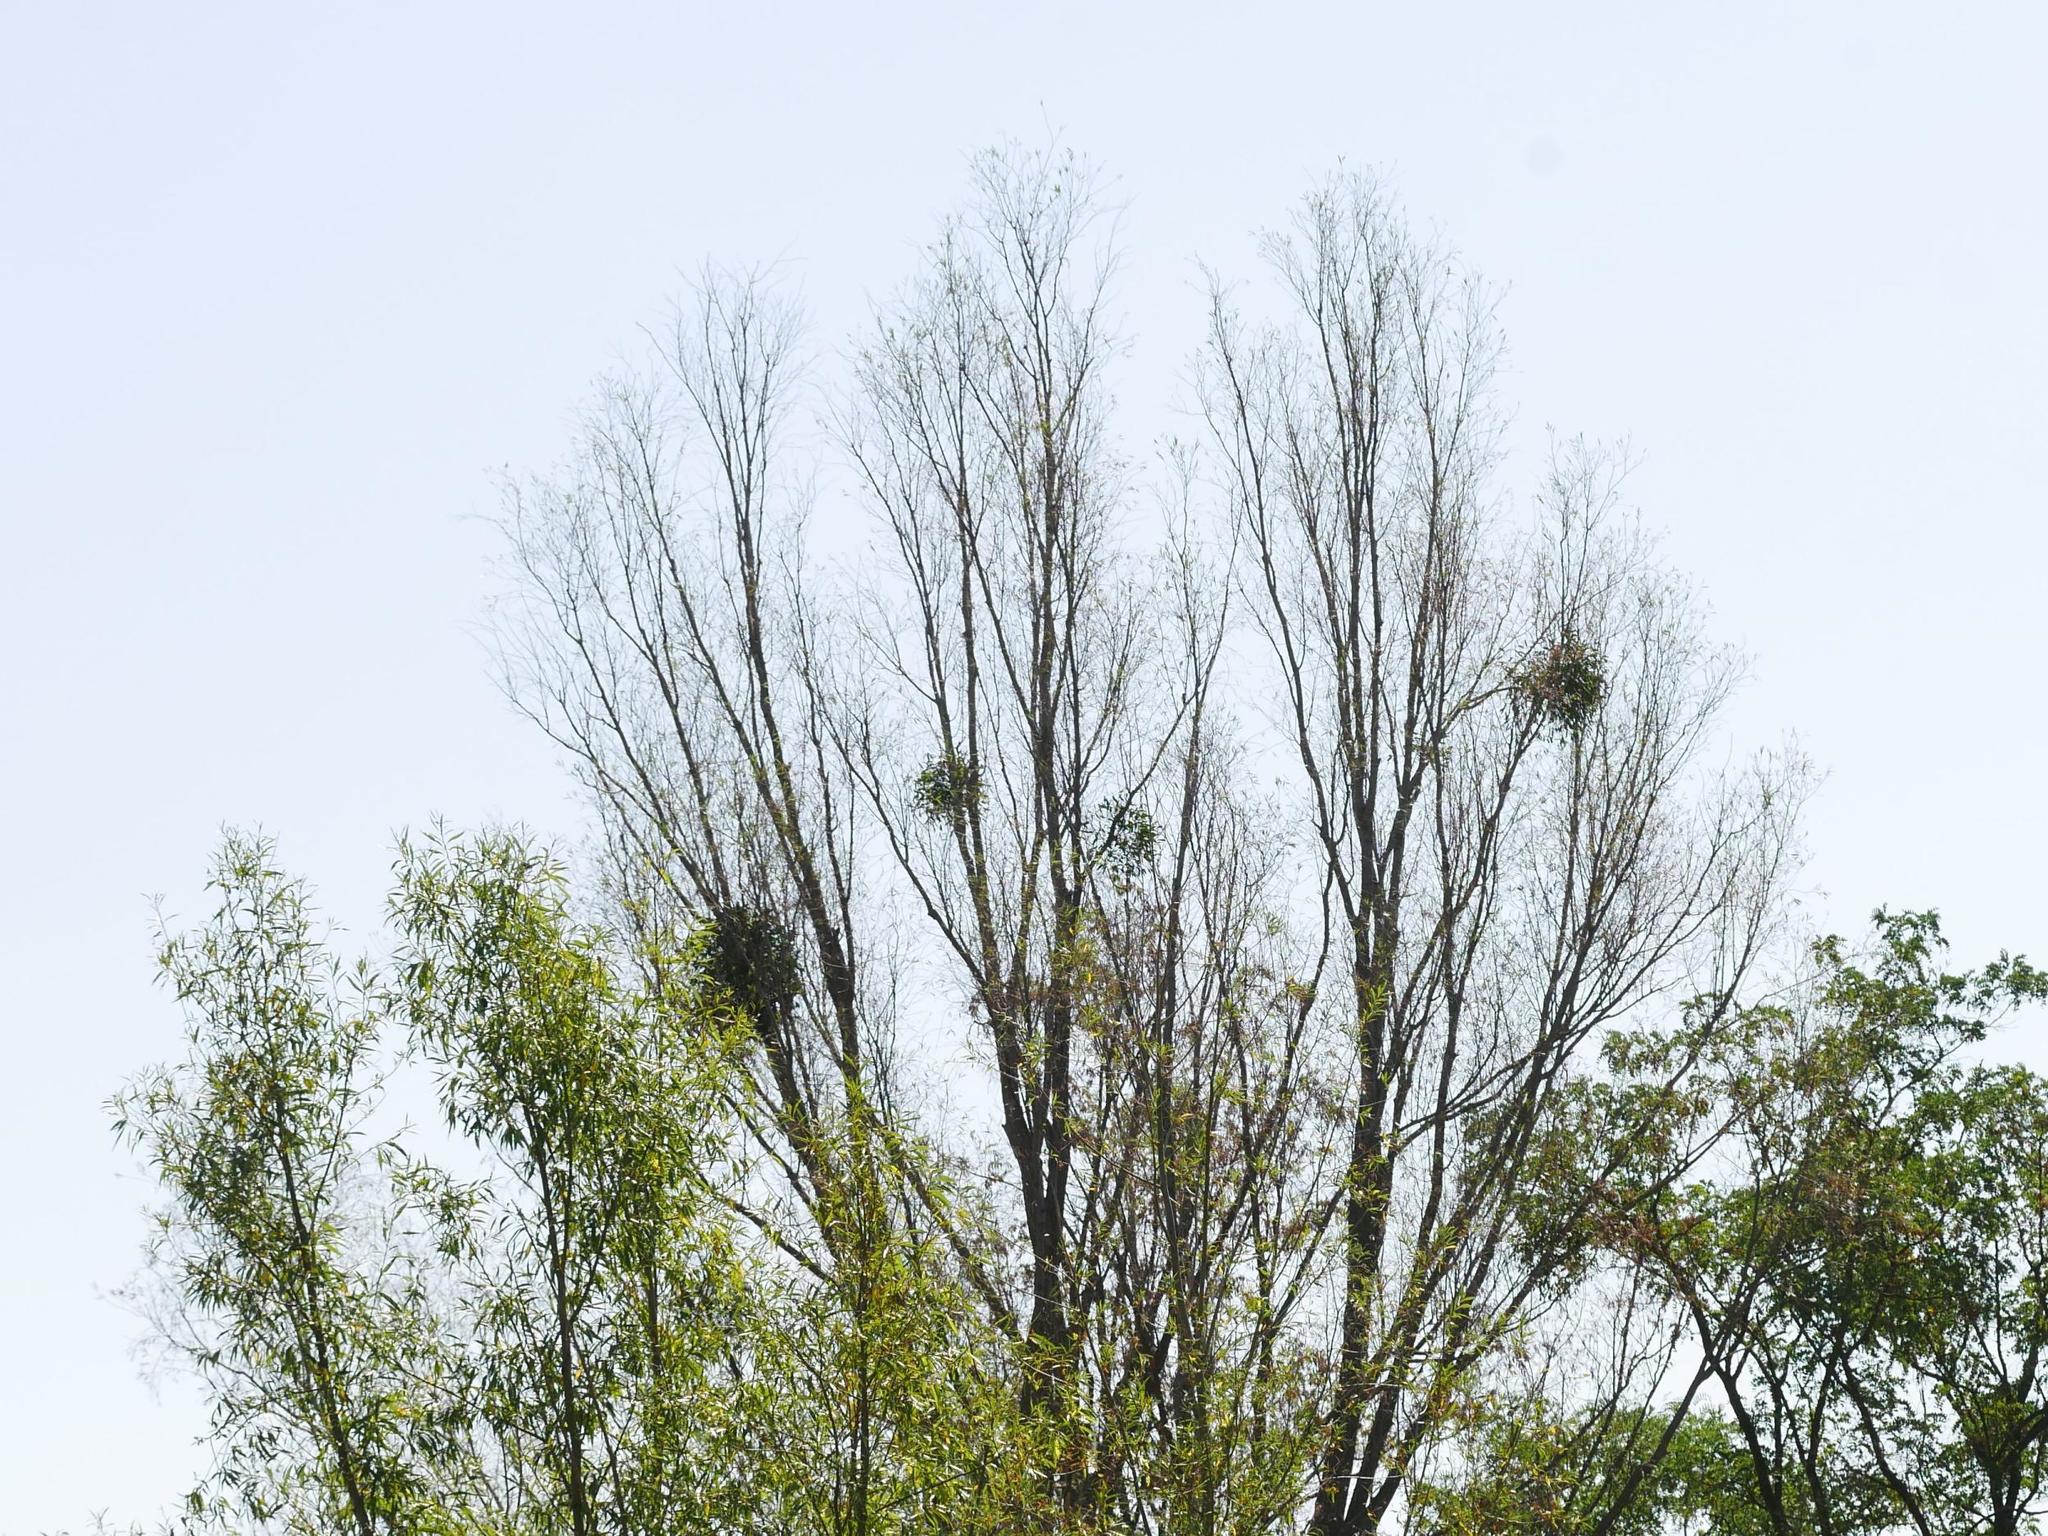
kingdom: Plantae
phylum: Tracheophyta
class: Magnoliopsida
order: Santalales
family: Viscaceae
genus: Viscum
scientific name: Viscum album
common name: Mistletoe
